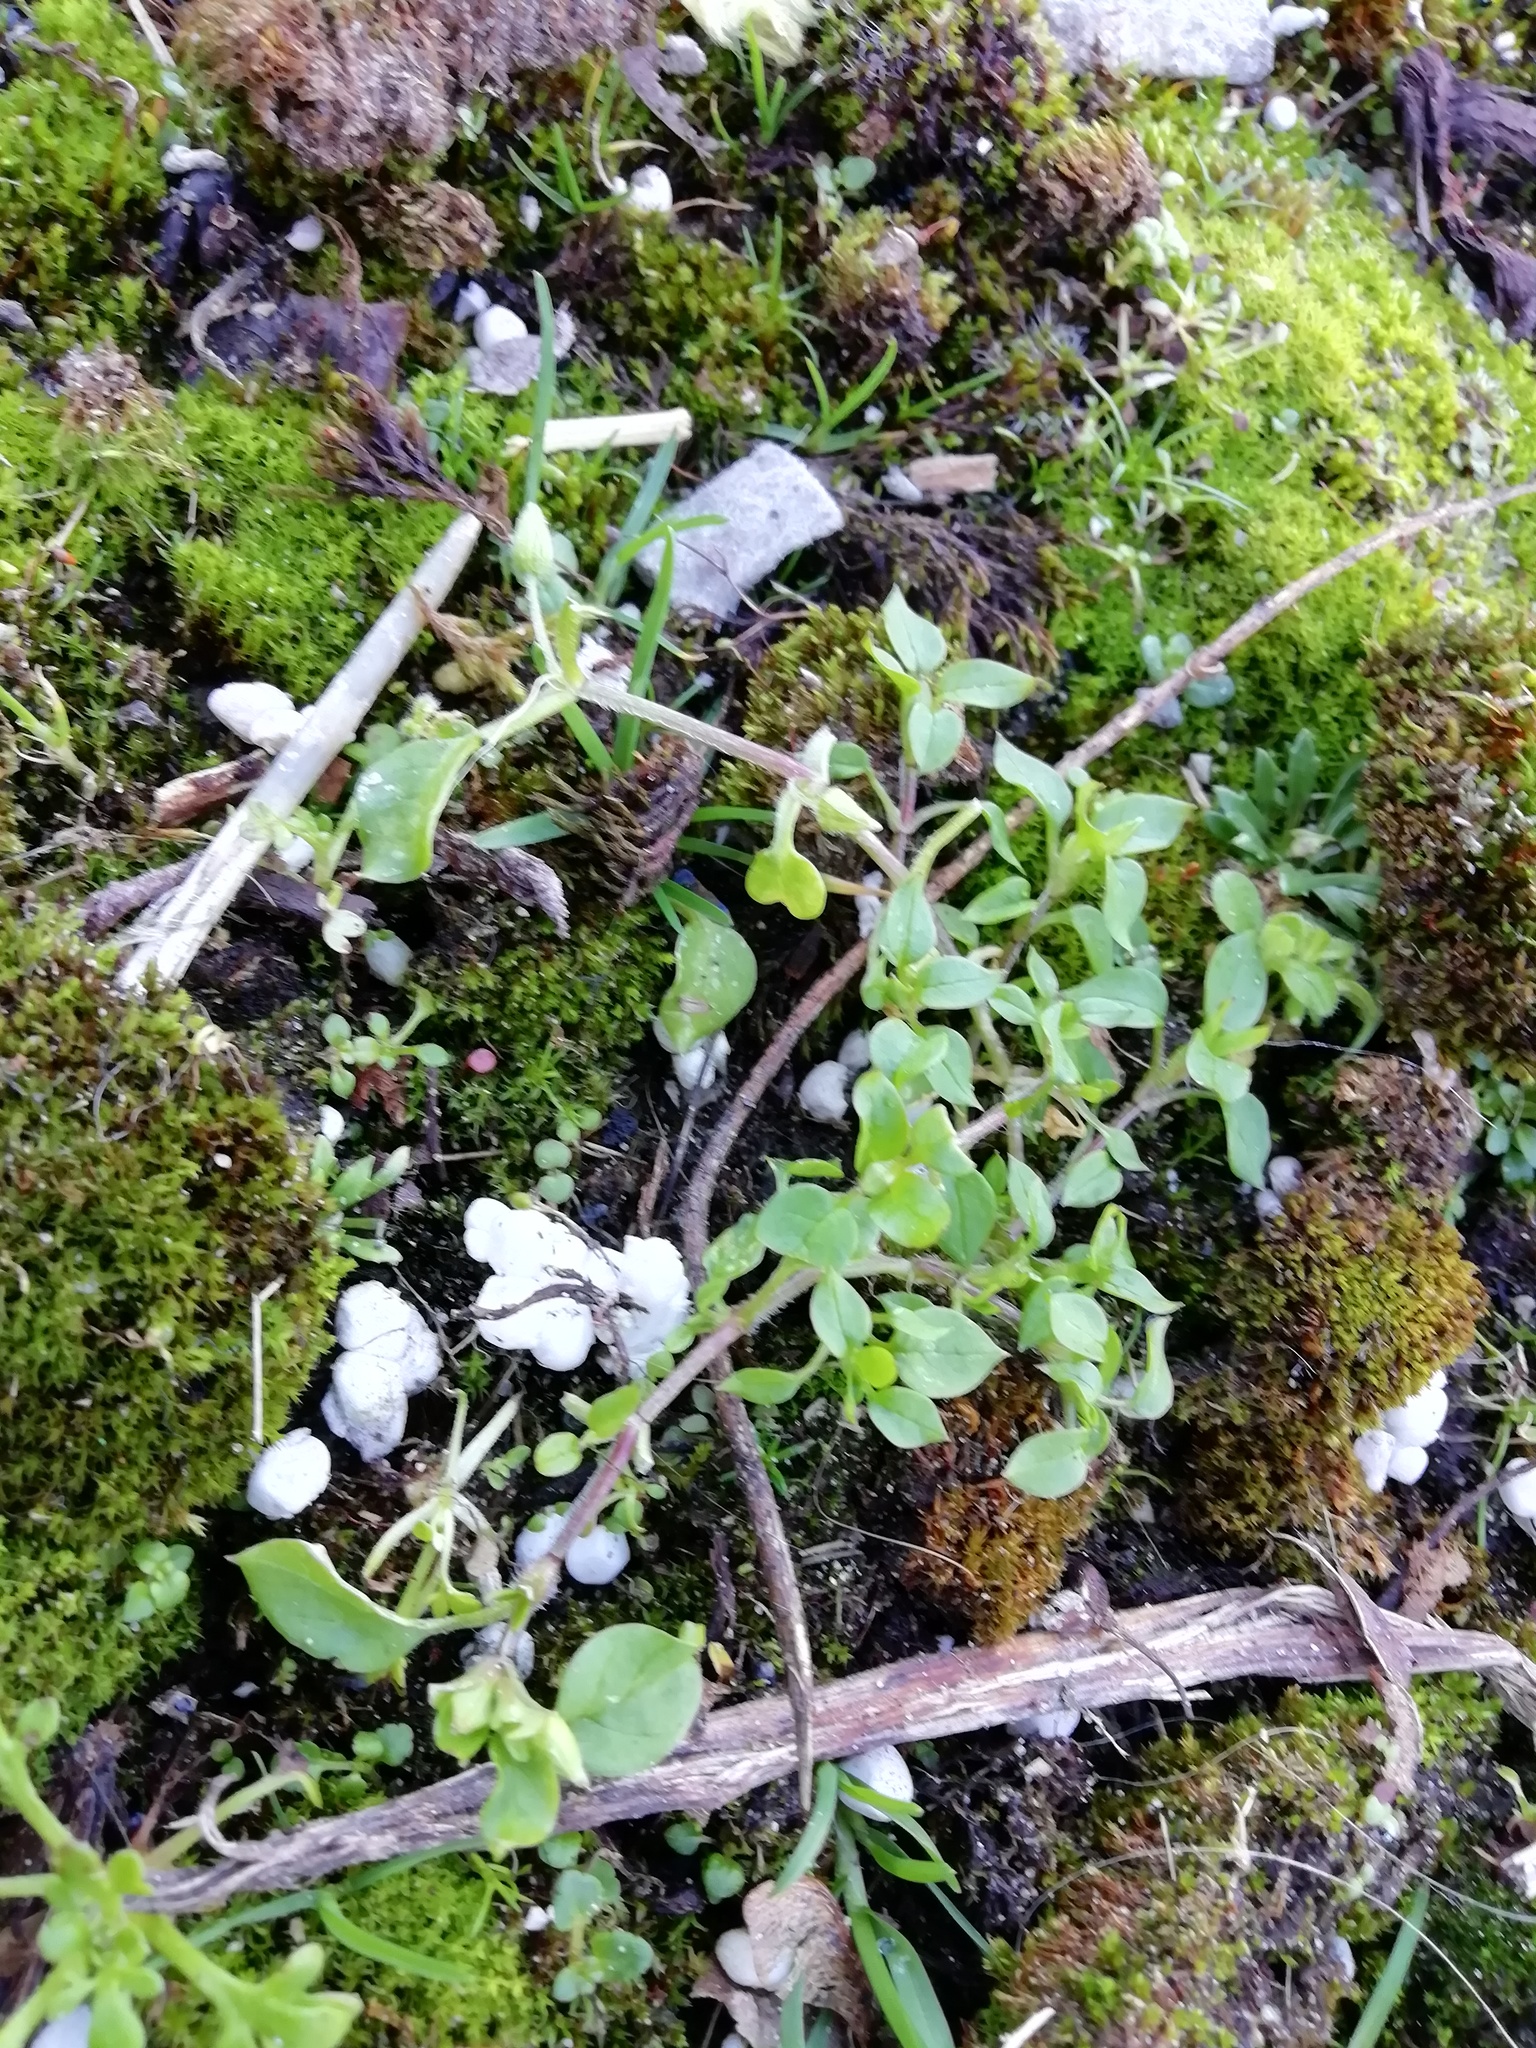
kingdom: Plantae
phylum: Tracheophyta
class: Magnoliopsida
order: Caryophyllales
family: Caryophyllaceae
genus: Stellaria
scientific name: Stellaria media
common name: Common chickweed
